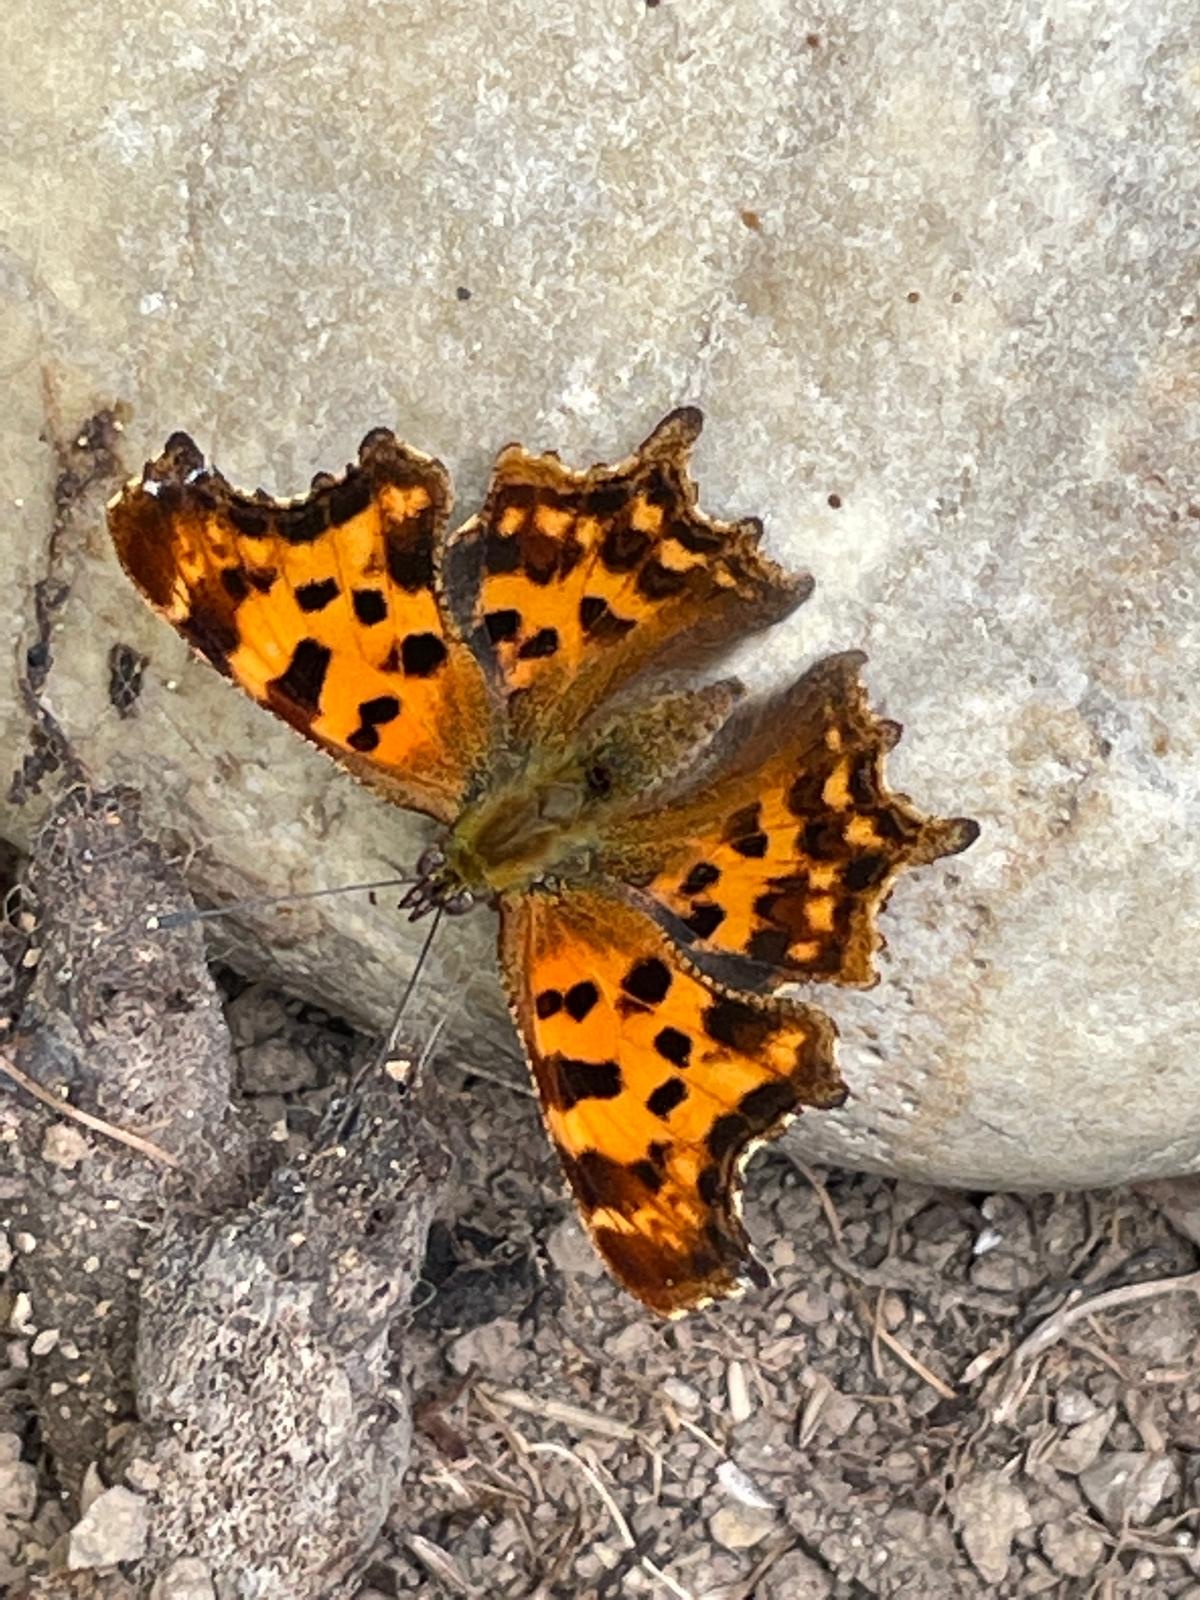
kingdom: Animalia
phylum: Arthropoda
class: Insecta
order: Lepidoptera
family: Nymphalidae
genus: Polygonia
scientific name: Polygonia c-album
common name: Comma
